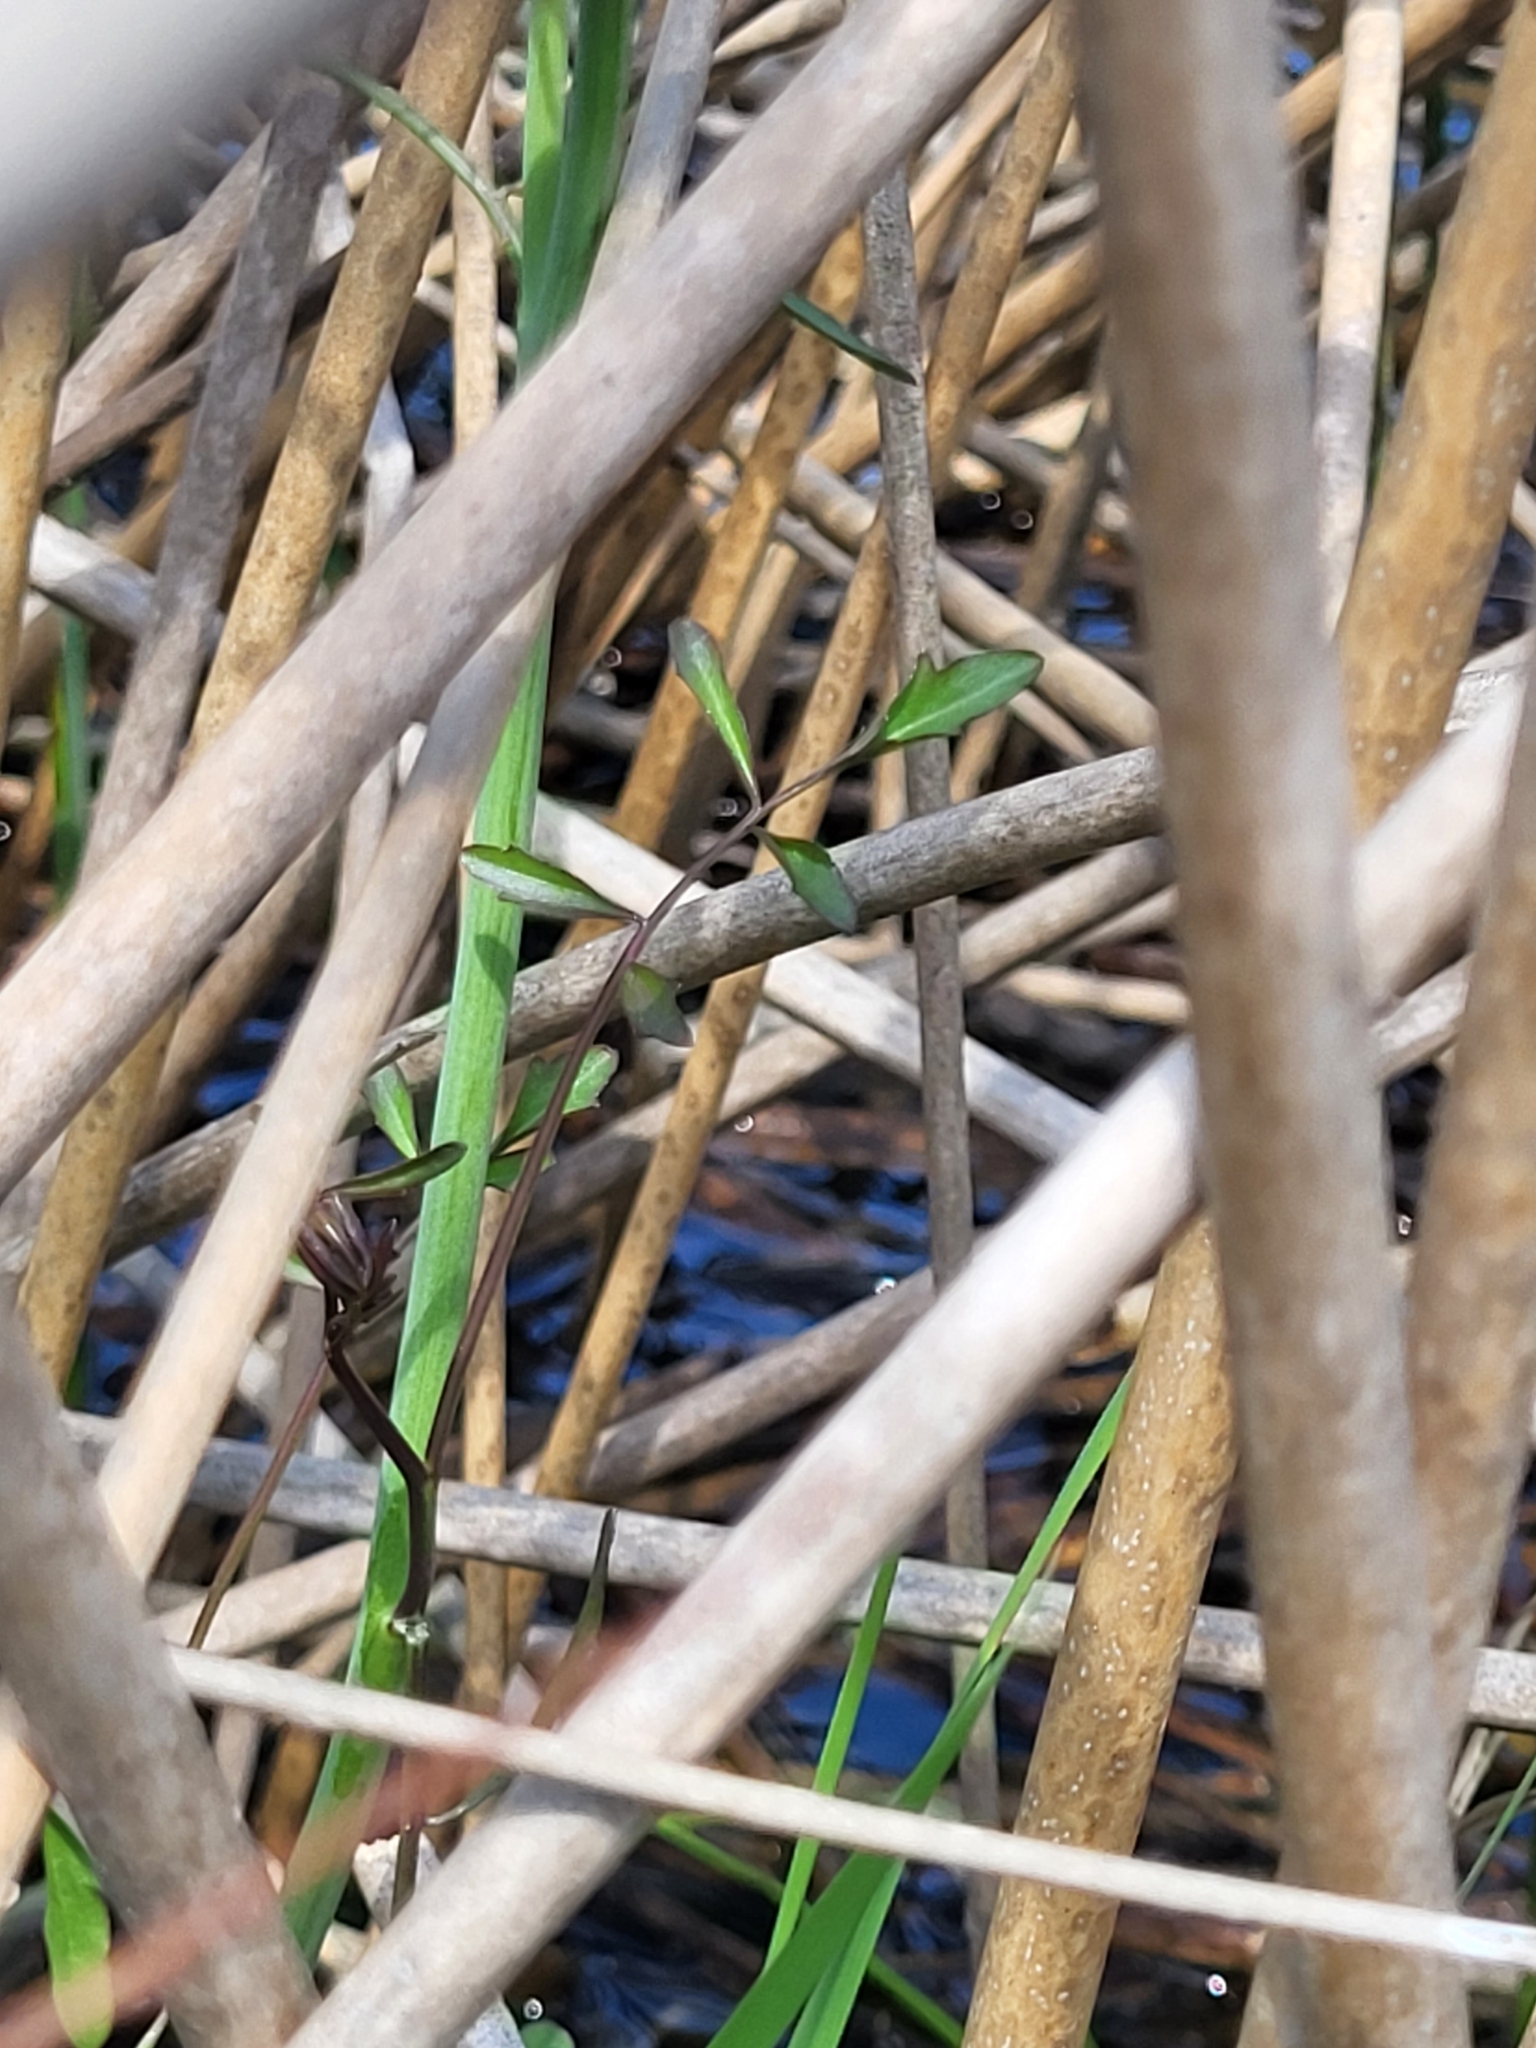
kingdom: Plantae
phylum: Tracheophyta
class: Magnoliopsida
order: Brassicales
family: Brassicaceae
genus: Cardamine
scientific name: Cardamine pratensis
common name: Cuckoo flower
